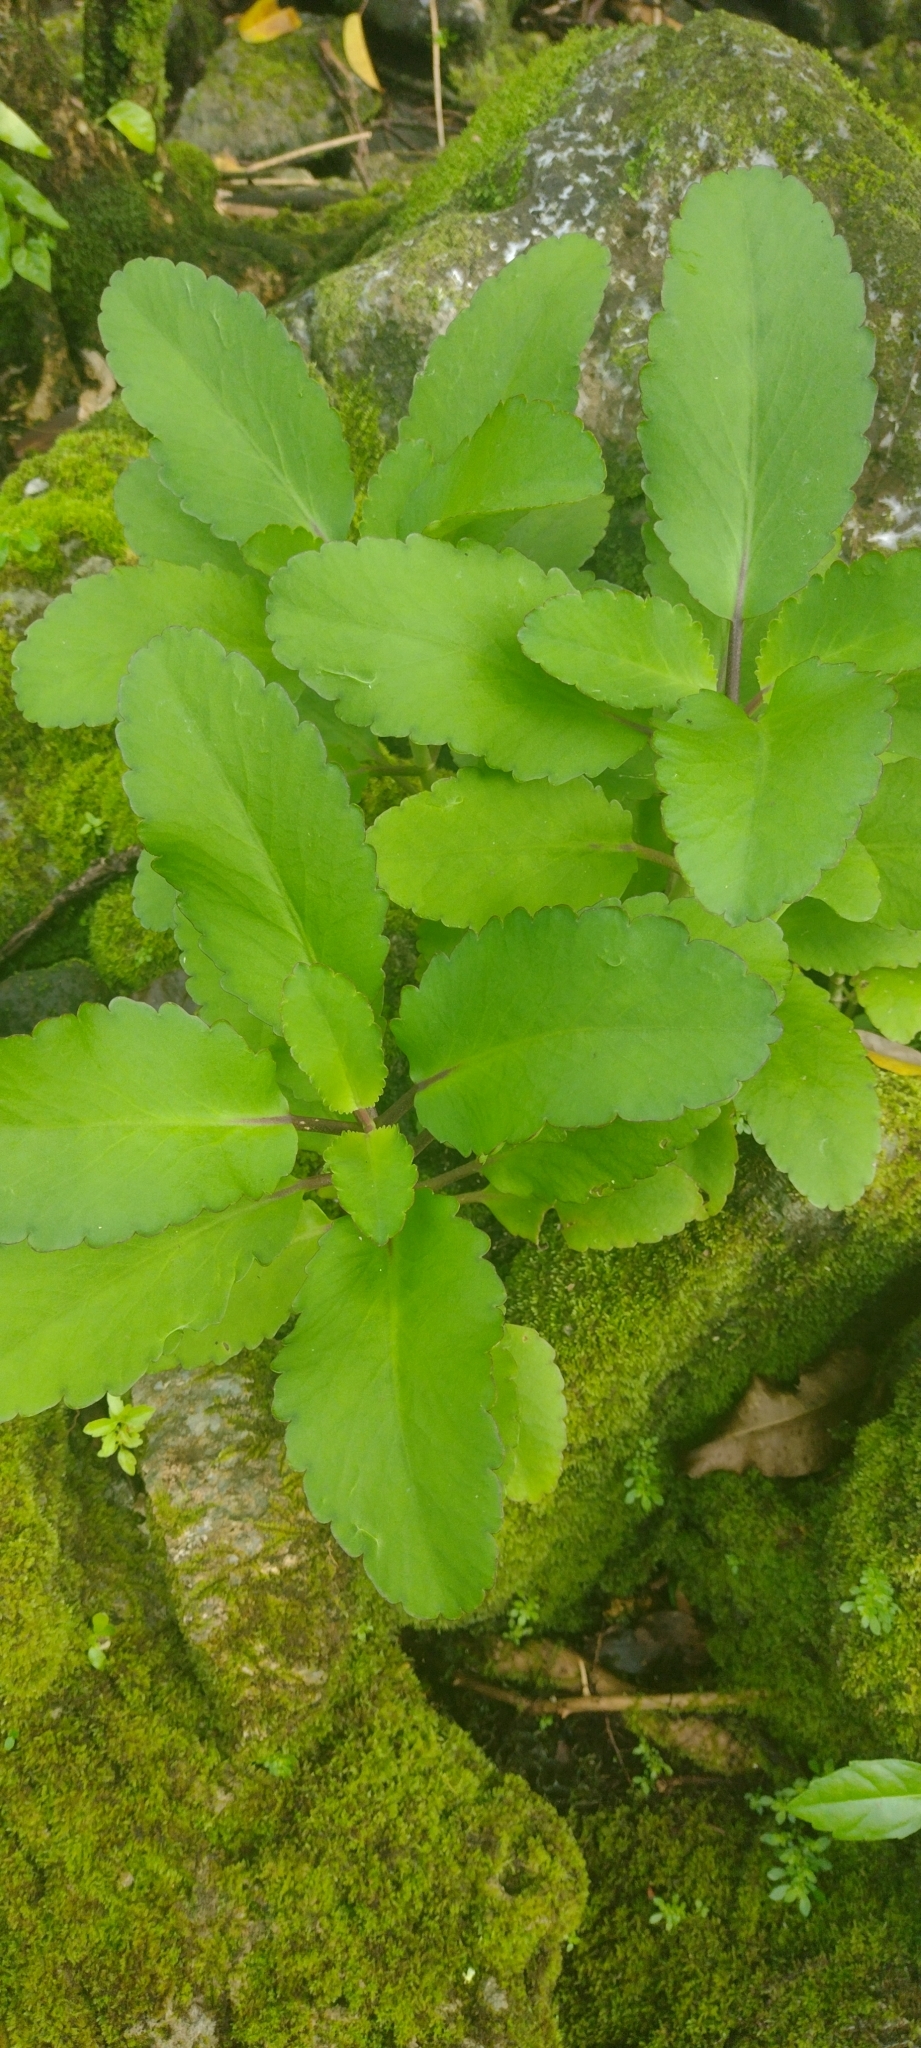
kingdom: Plantae
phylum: Tracheophyta
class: Magnoliopsida
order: Saxifragales
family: Crassulaceae
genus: Kalanchoe
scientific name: Kalanchoe pinnata
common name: Cathedral bells
